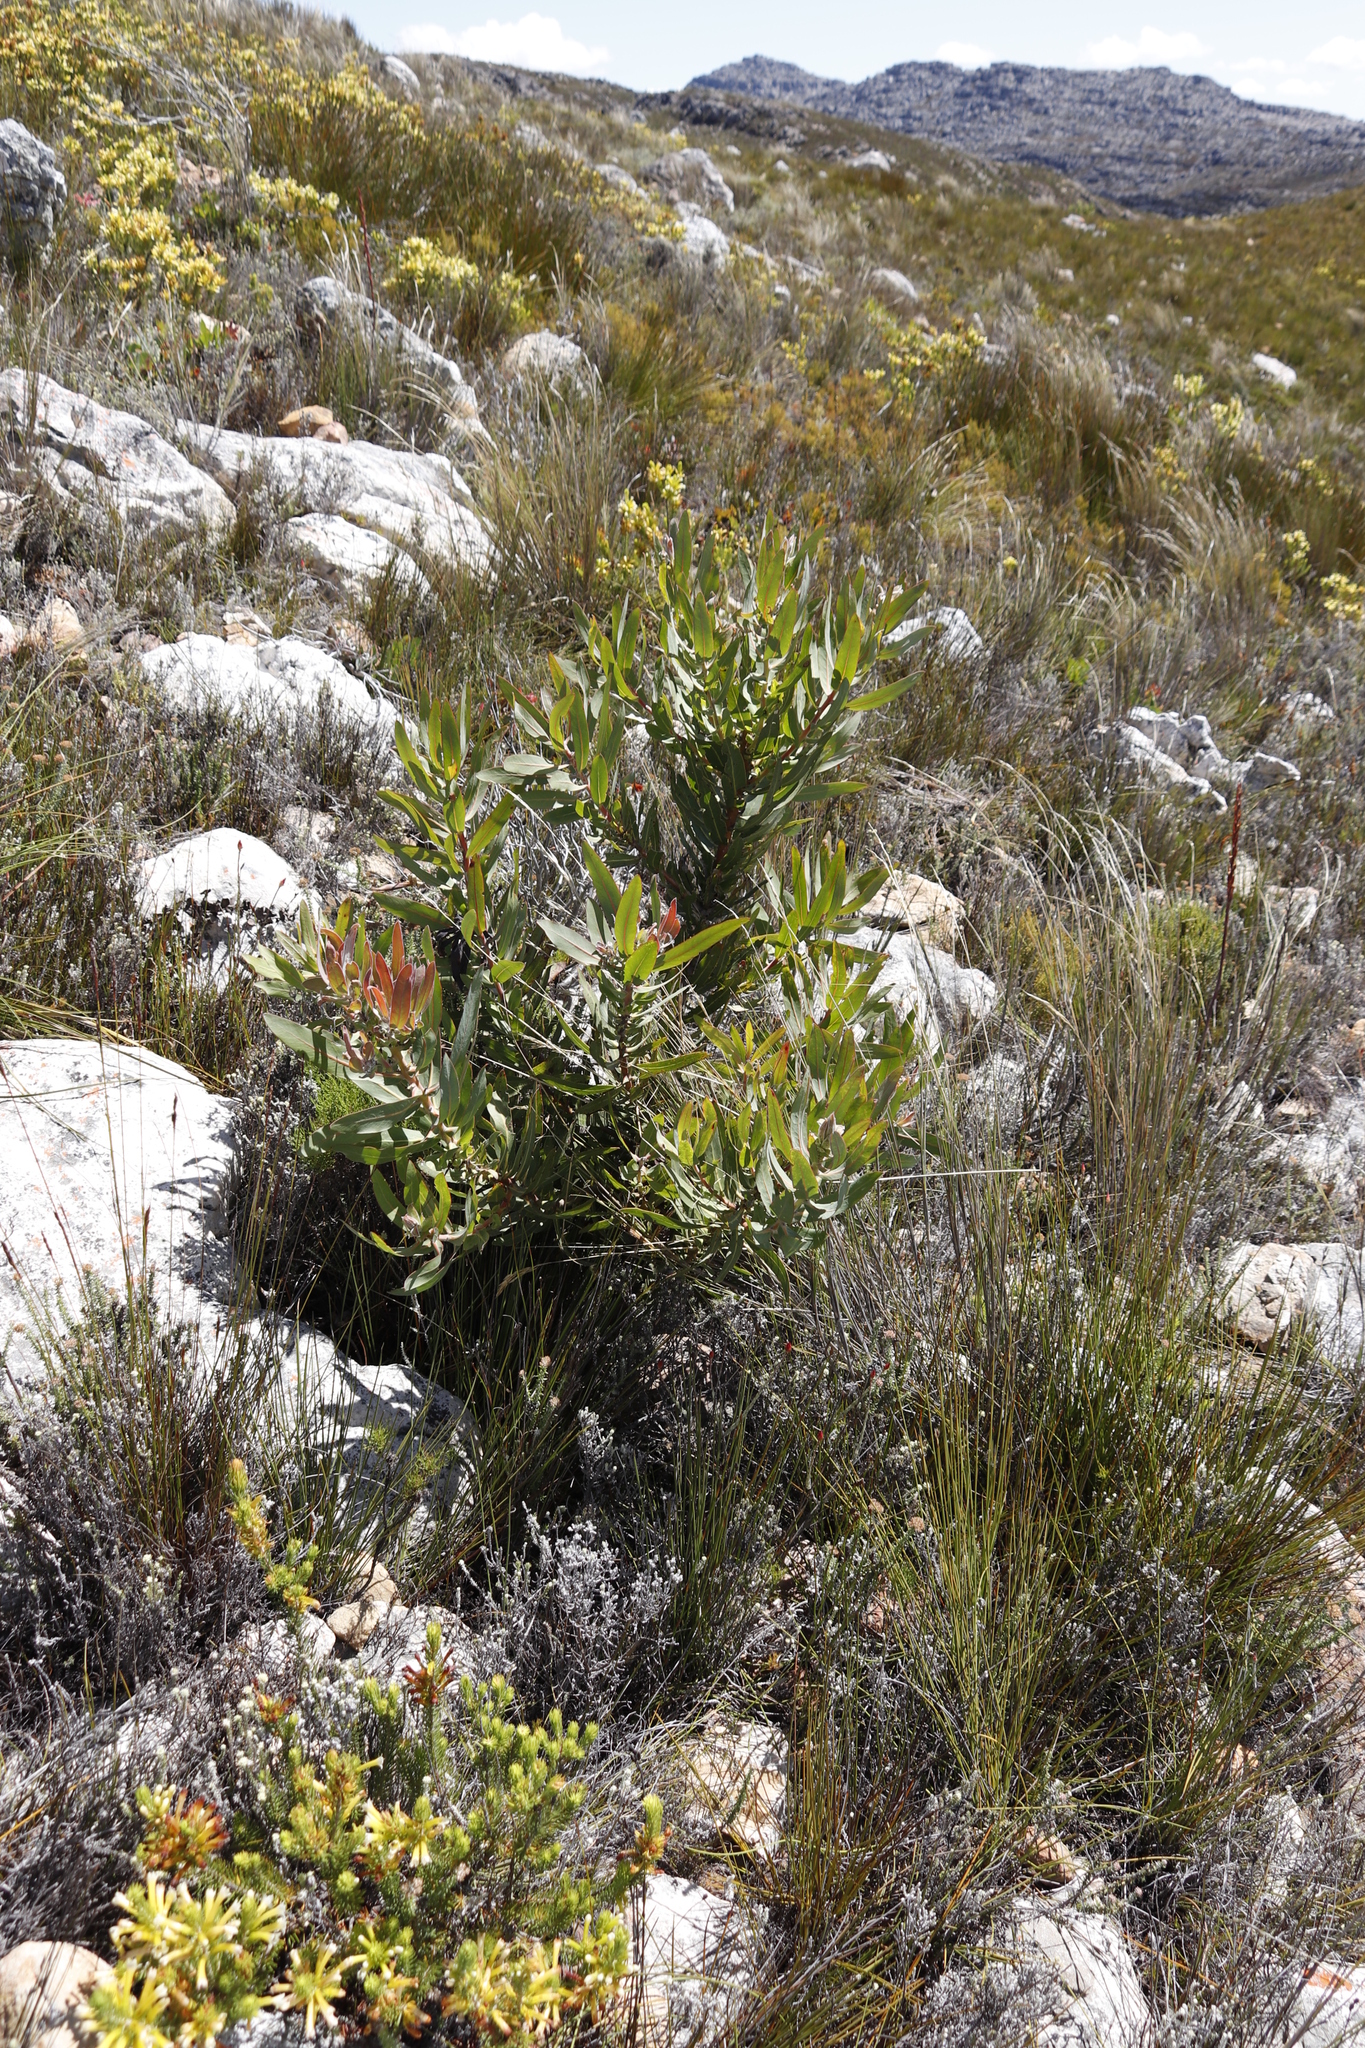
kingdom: Plantae
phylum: Tracheophyta
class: Magnoliopsida
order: Proteales
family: Proteaceae
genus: Protea
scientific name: Protea laurifolia
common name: Grey-leaf sugarbsh
